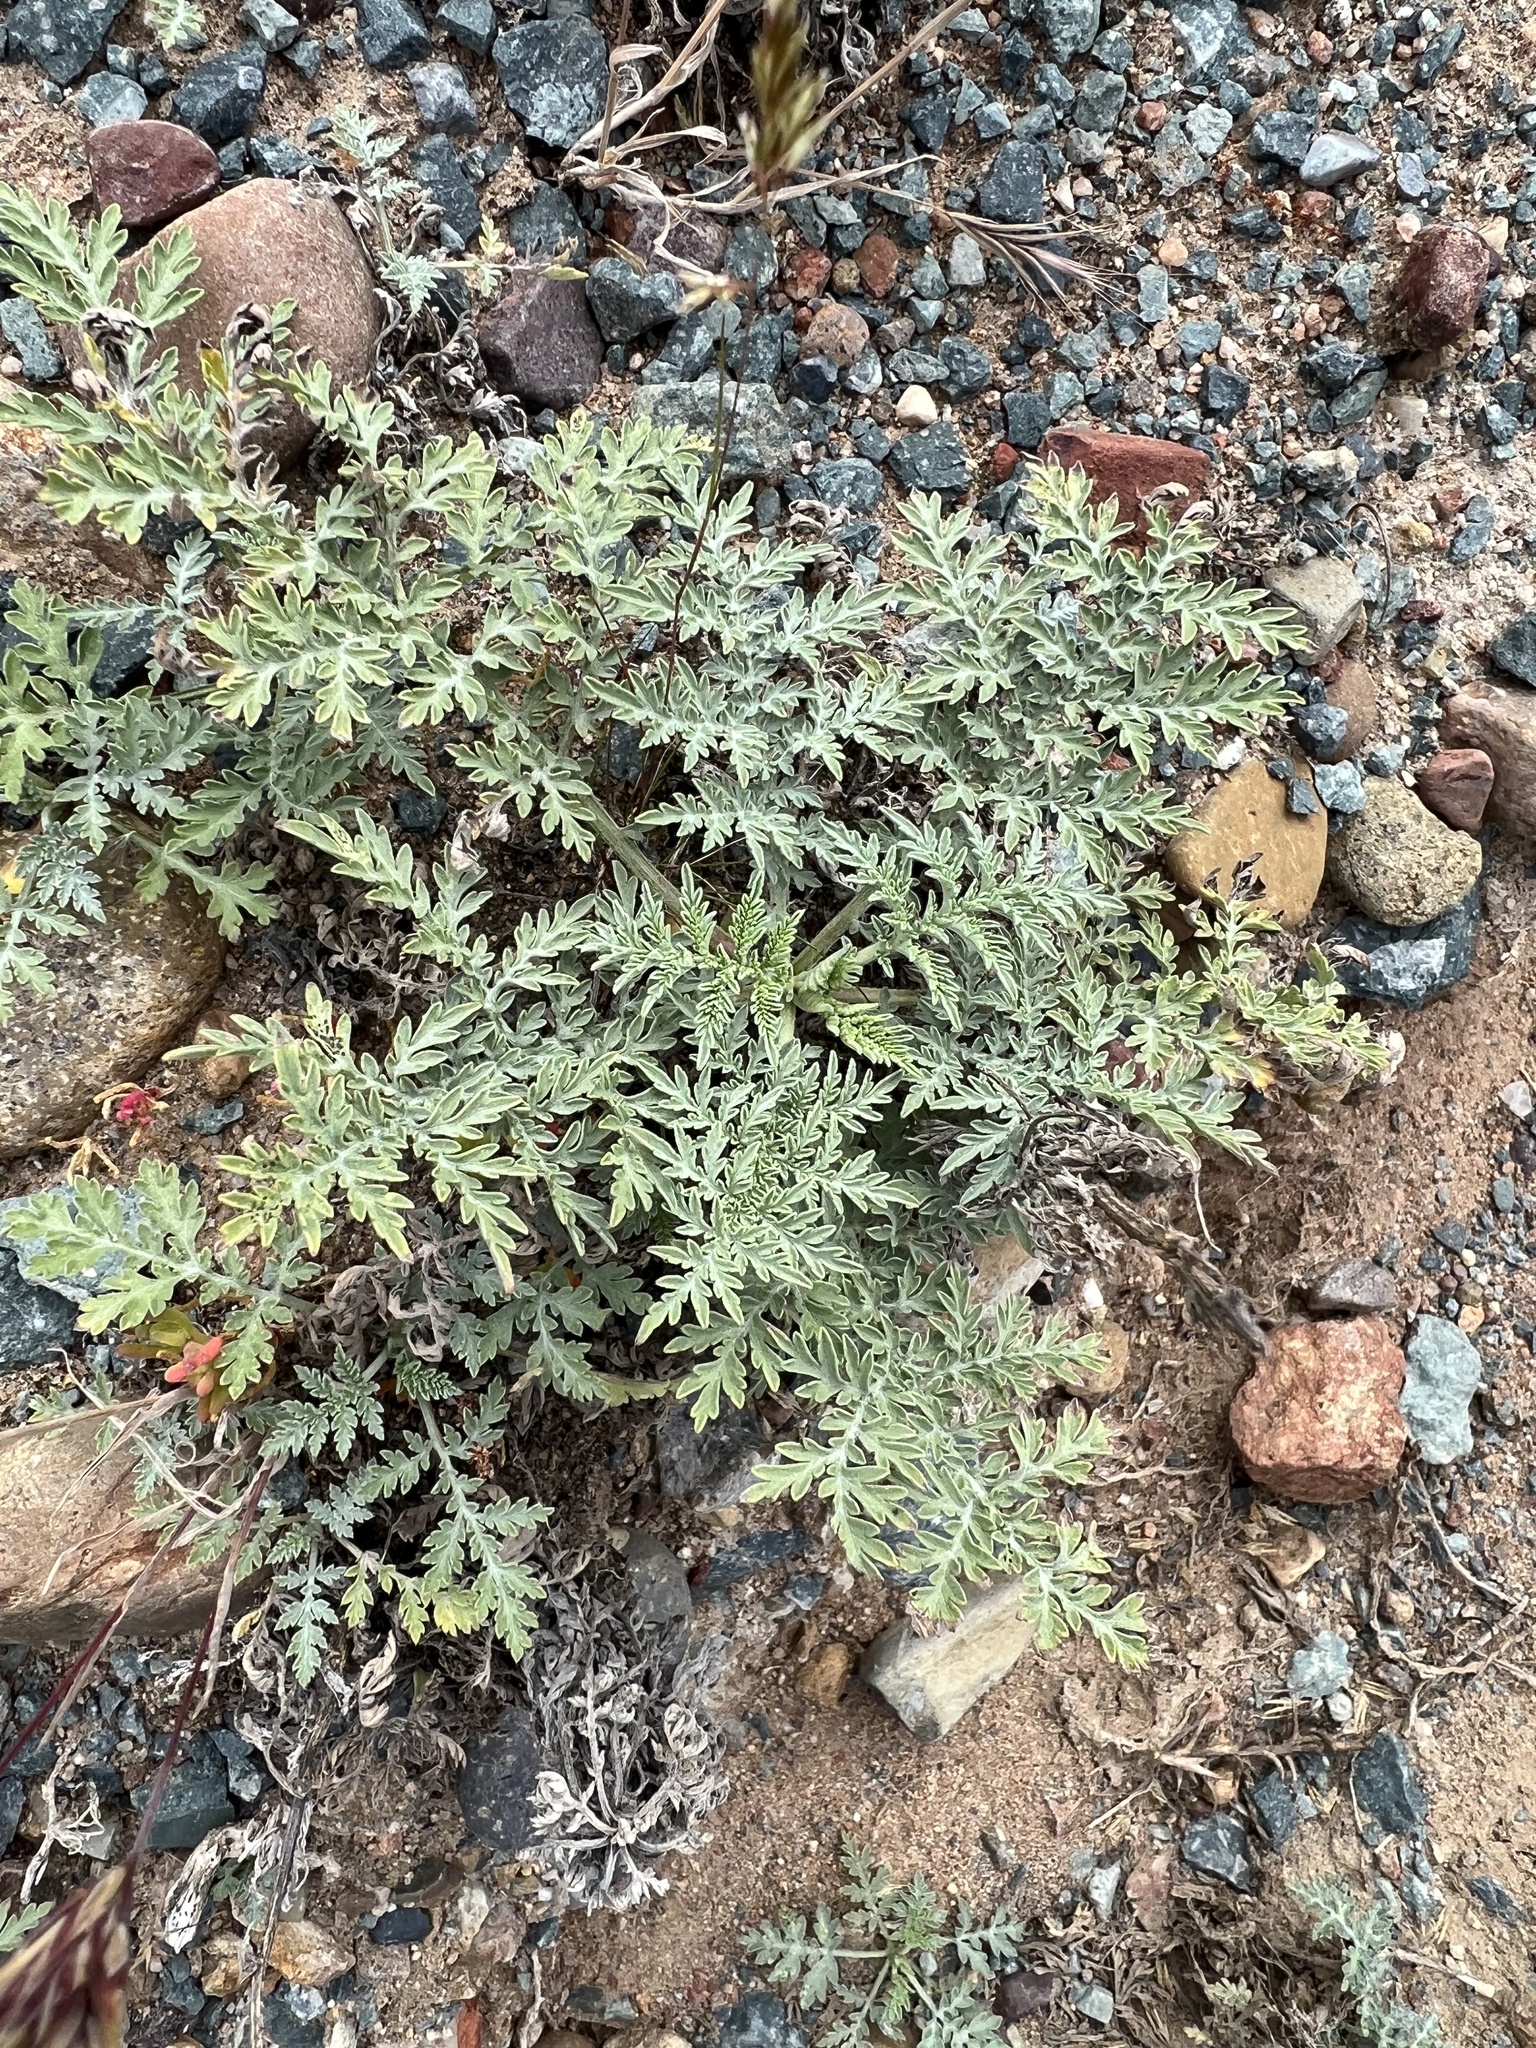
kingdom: Plantae
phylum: Tracheophyta
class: Magnoliopsida
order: Asterales
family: Asteraceae
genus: Ambrosia
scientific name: Ambrosia confertiflora
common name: Bur ragweed
